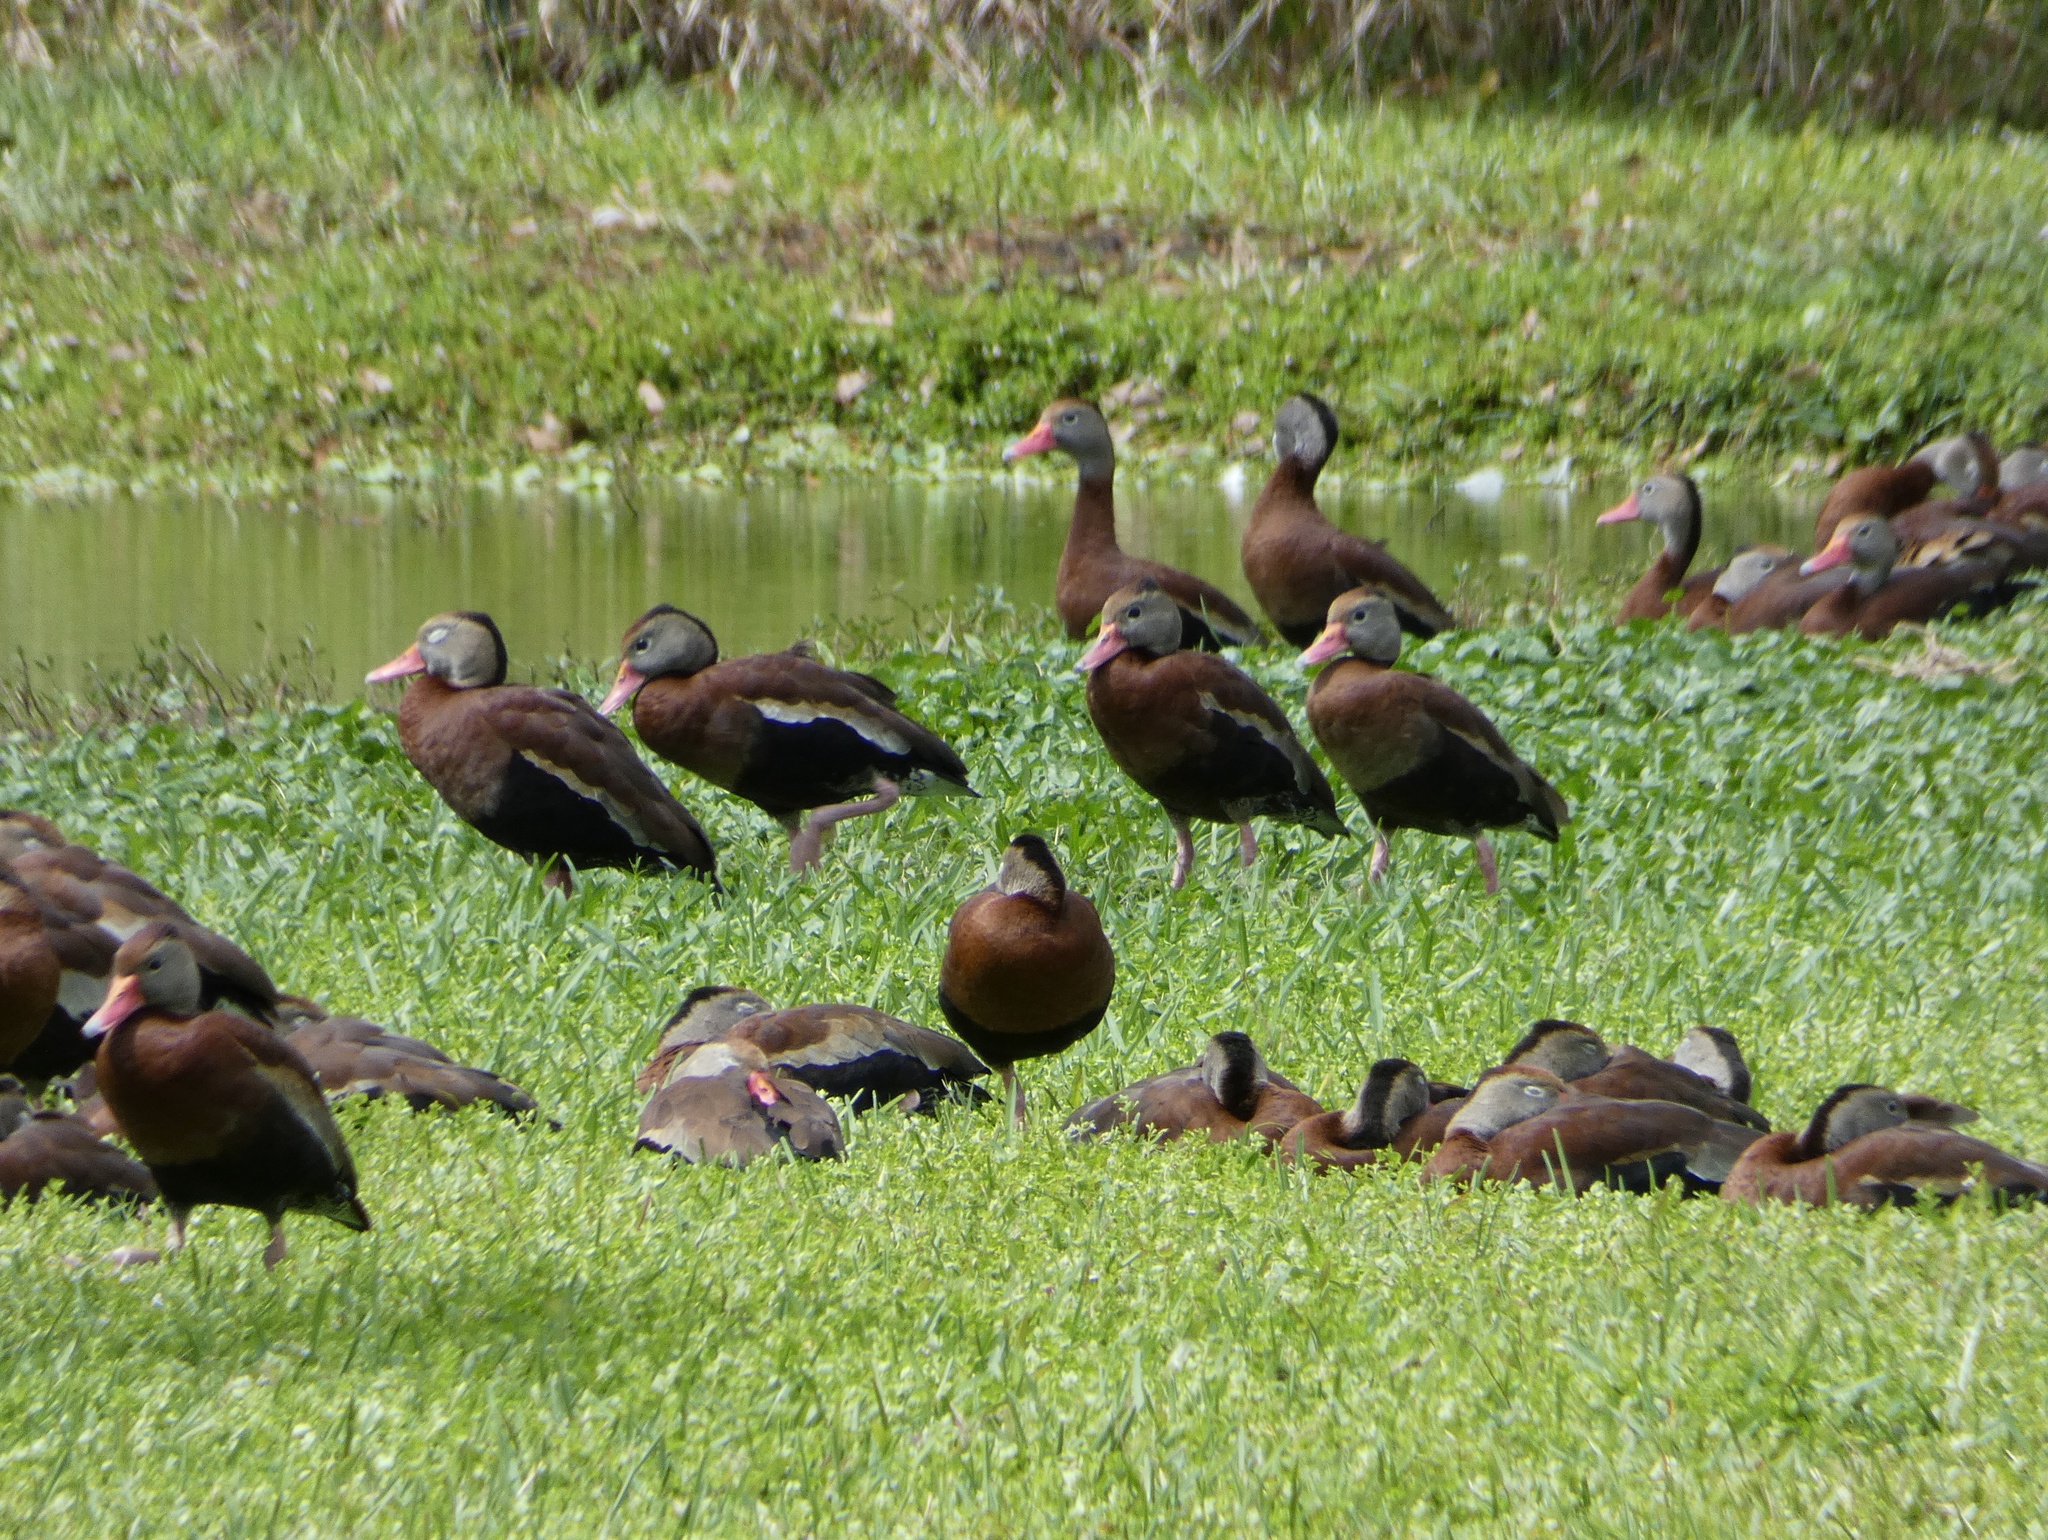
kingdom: Animalia
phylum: Chordata
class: Aves
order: Anseriformes
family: Anatidae
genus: Dendrocygna
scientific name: Dendrocygna autumnalis
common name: Black-bellied whistling duck
